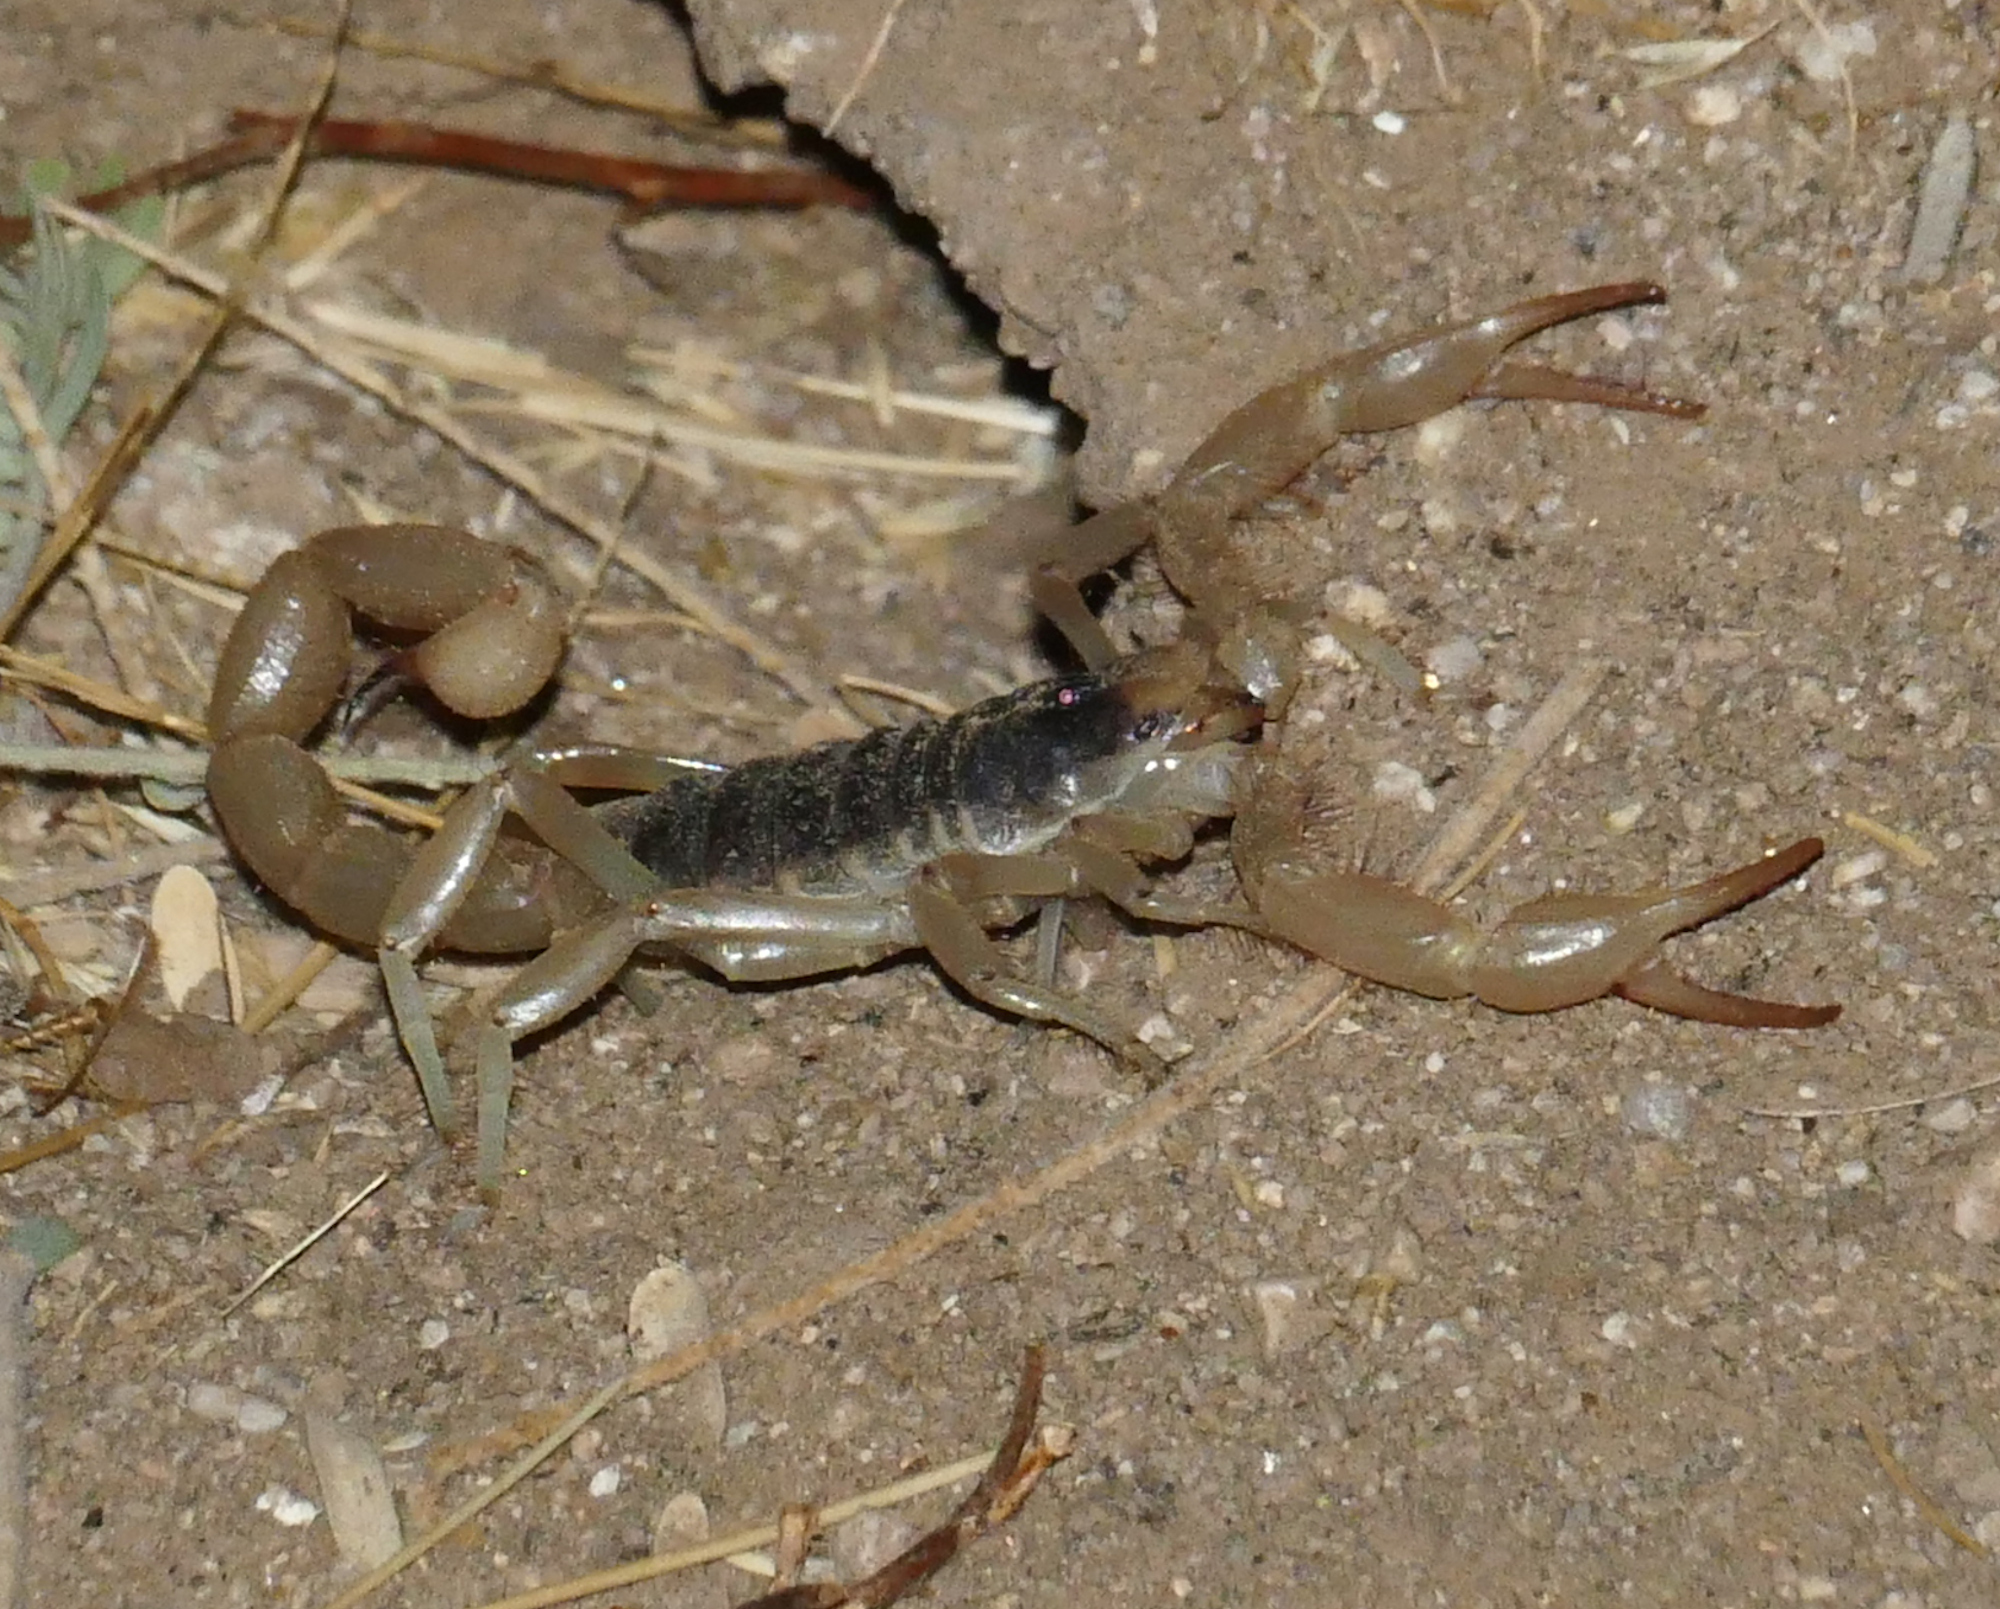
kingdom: Animalia
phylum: Arthropoda
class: Arachnida
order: Scorpiones
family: Hadruridae
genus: Hadrurus
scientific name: Hadrurus arizonensis
